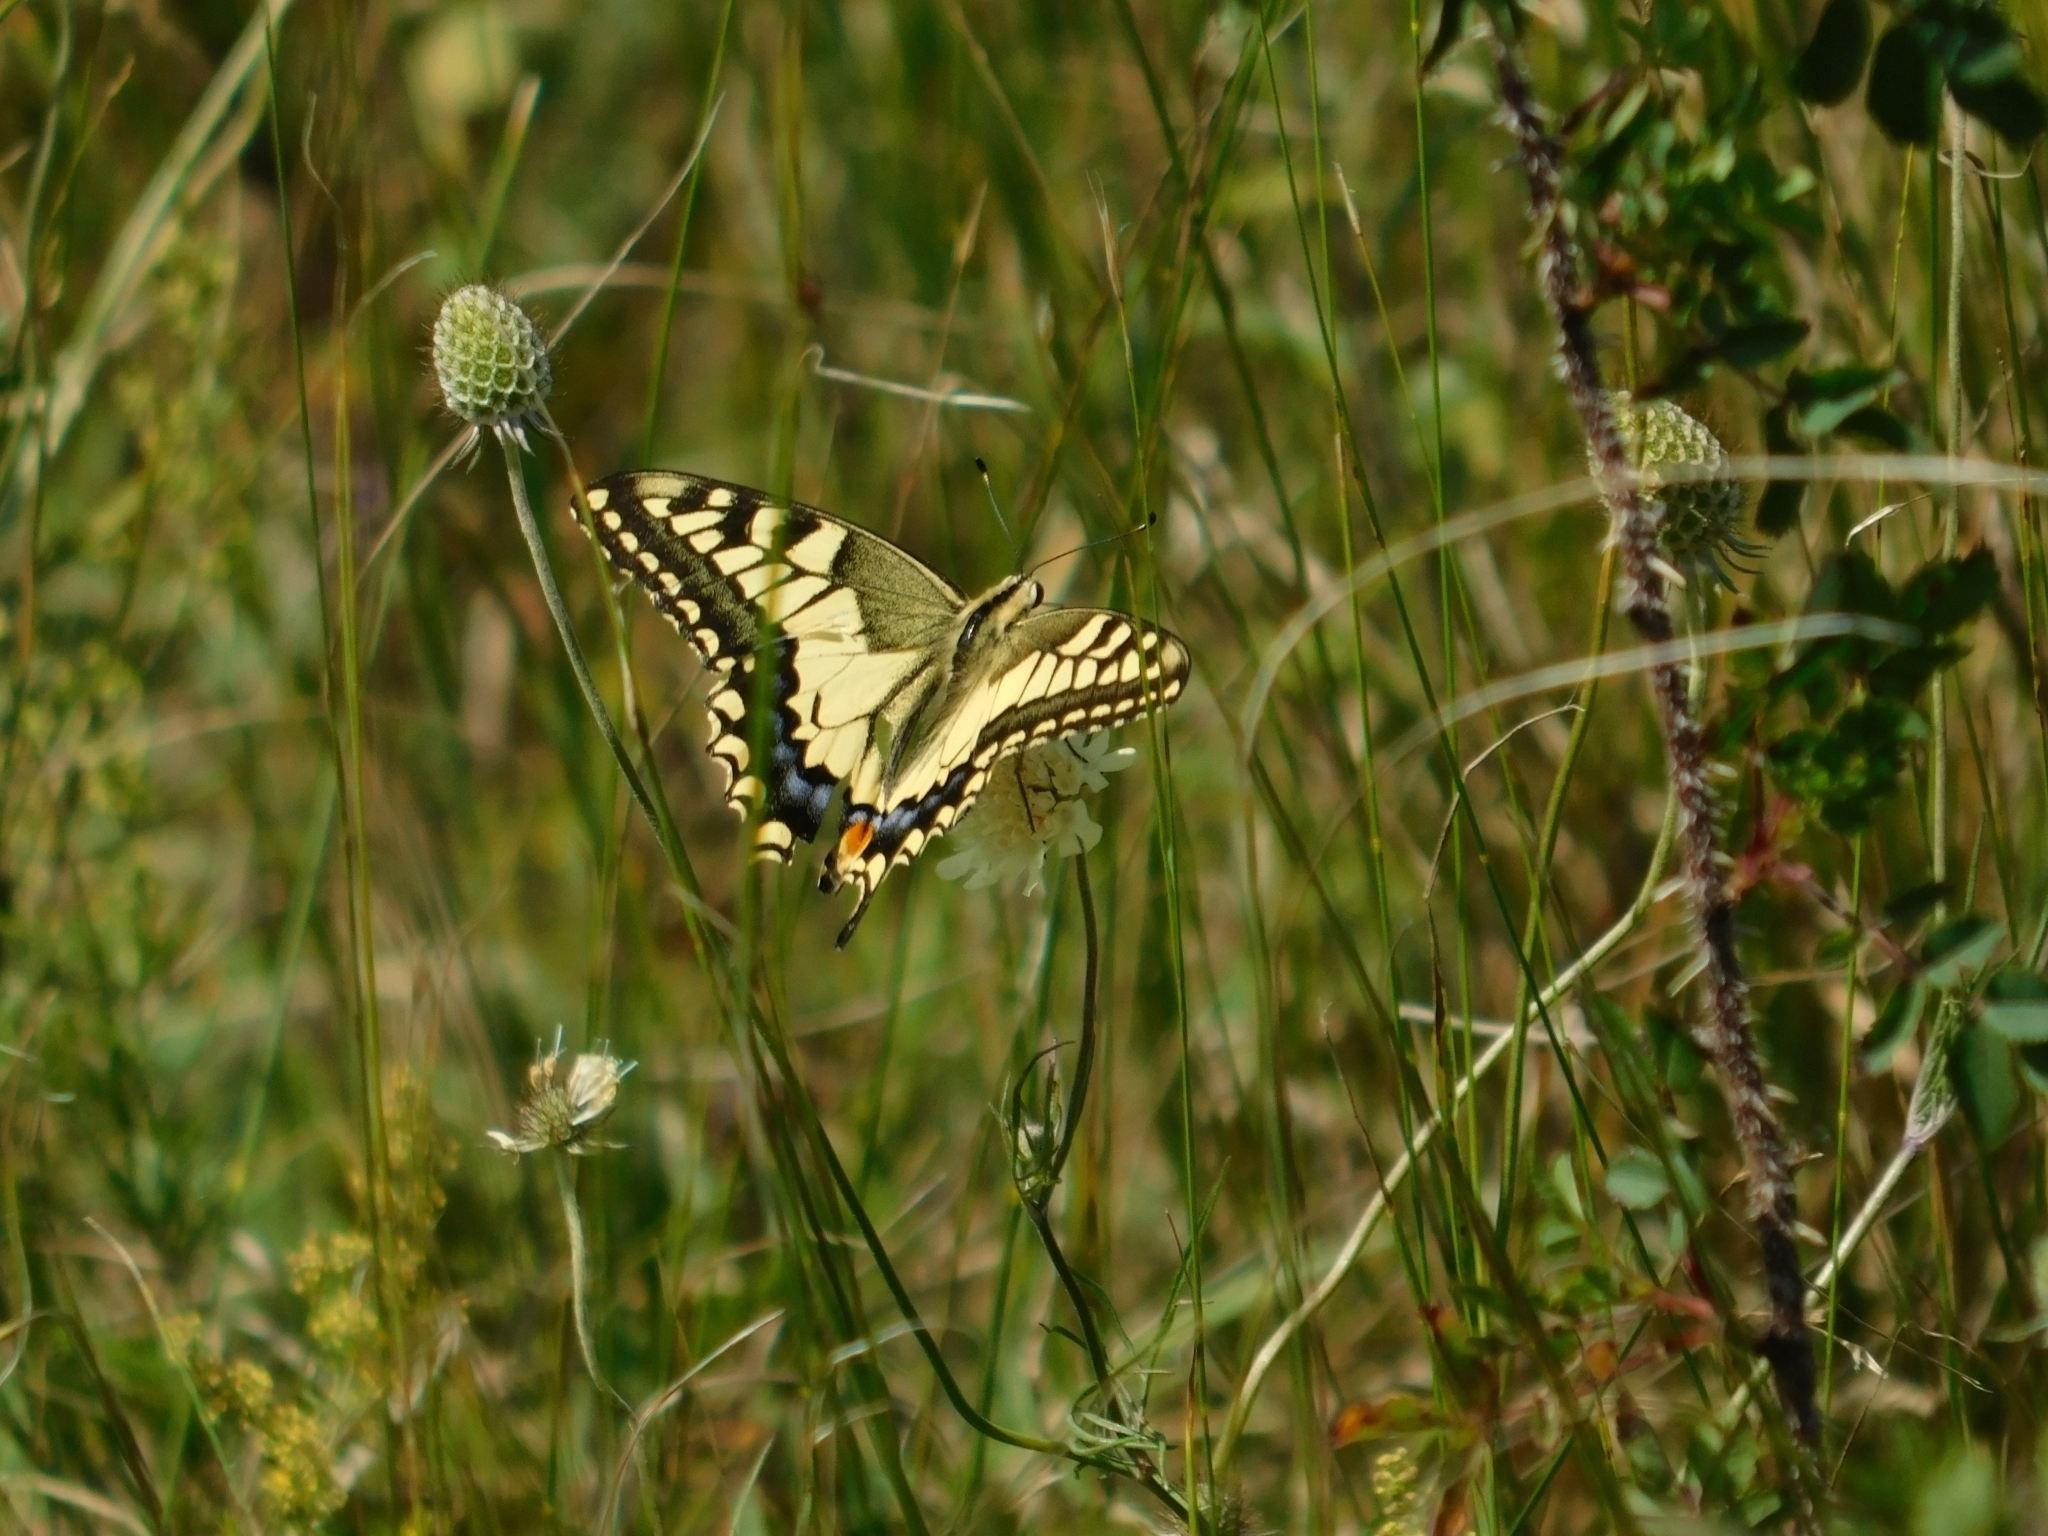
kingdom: Animalia
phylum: Arthropoda
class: Insecta
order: Lepidoptera
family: Papilionidae
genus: Papilio
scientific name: Papilio machaon
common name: Swallowtail
